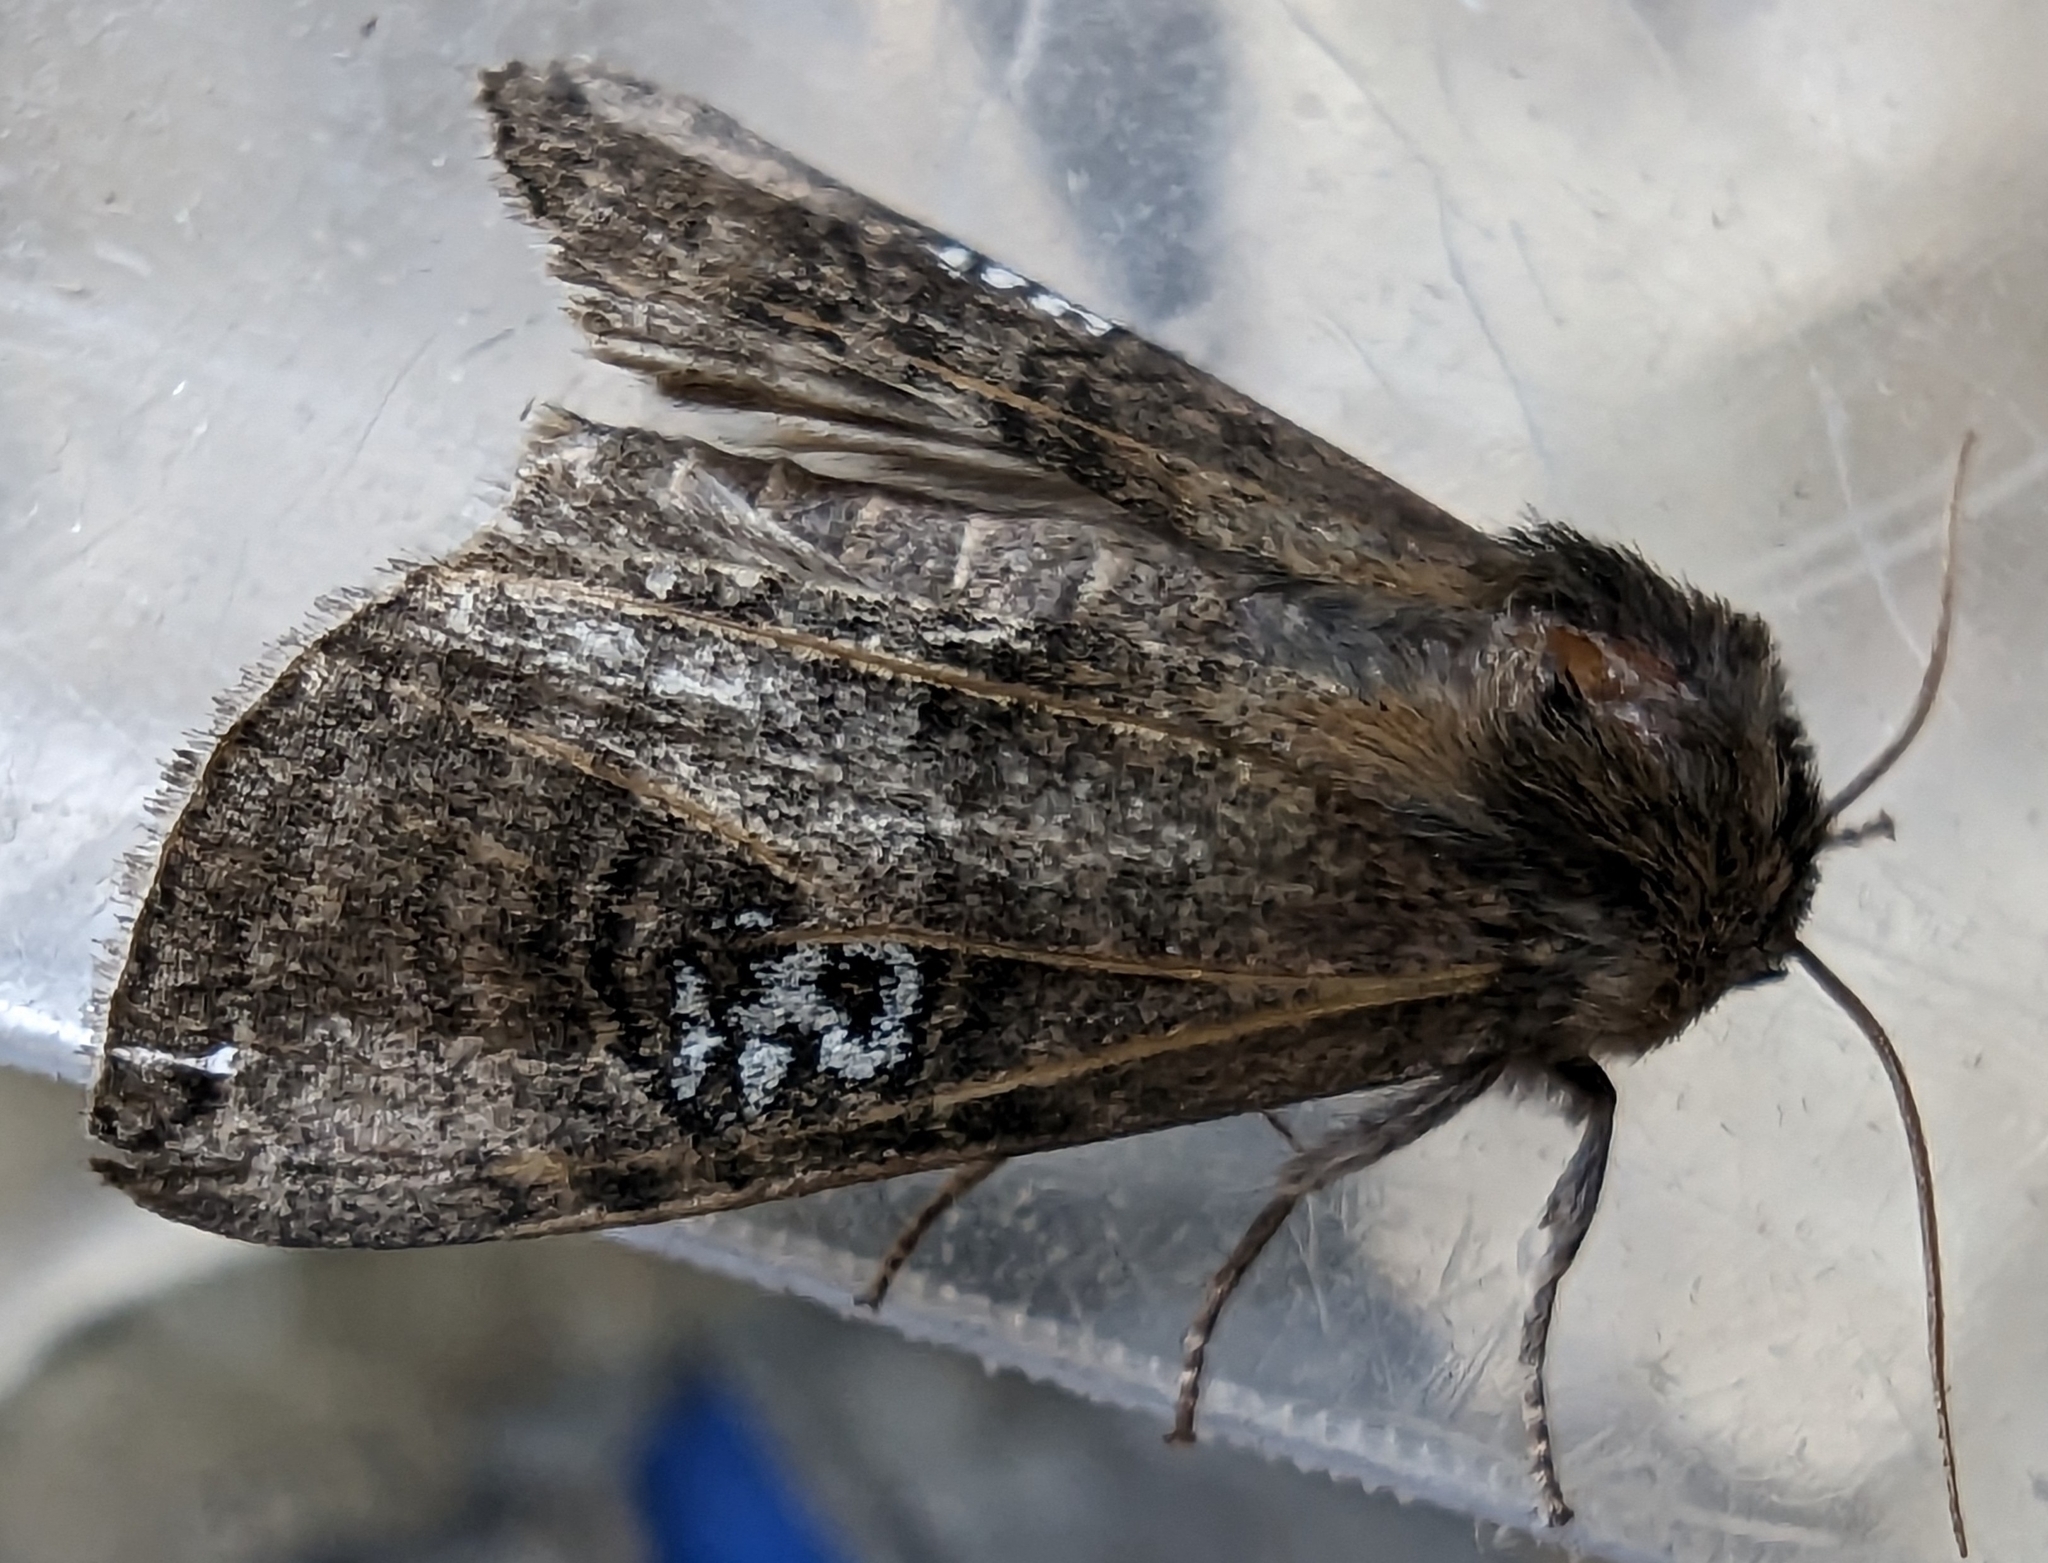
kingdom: Animalia
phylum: Arthropoda
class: Insecta
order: Lepidoptera
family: Drepanidae
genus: Tethea
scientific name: Tethea ocularis
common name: Figure of eighty
